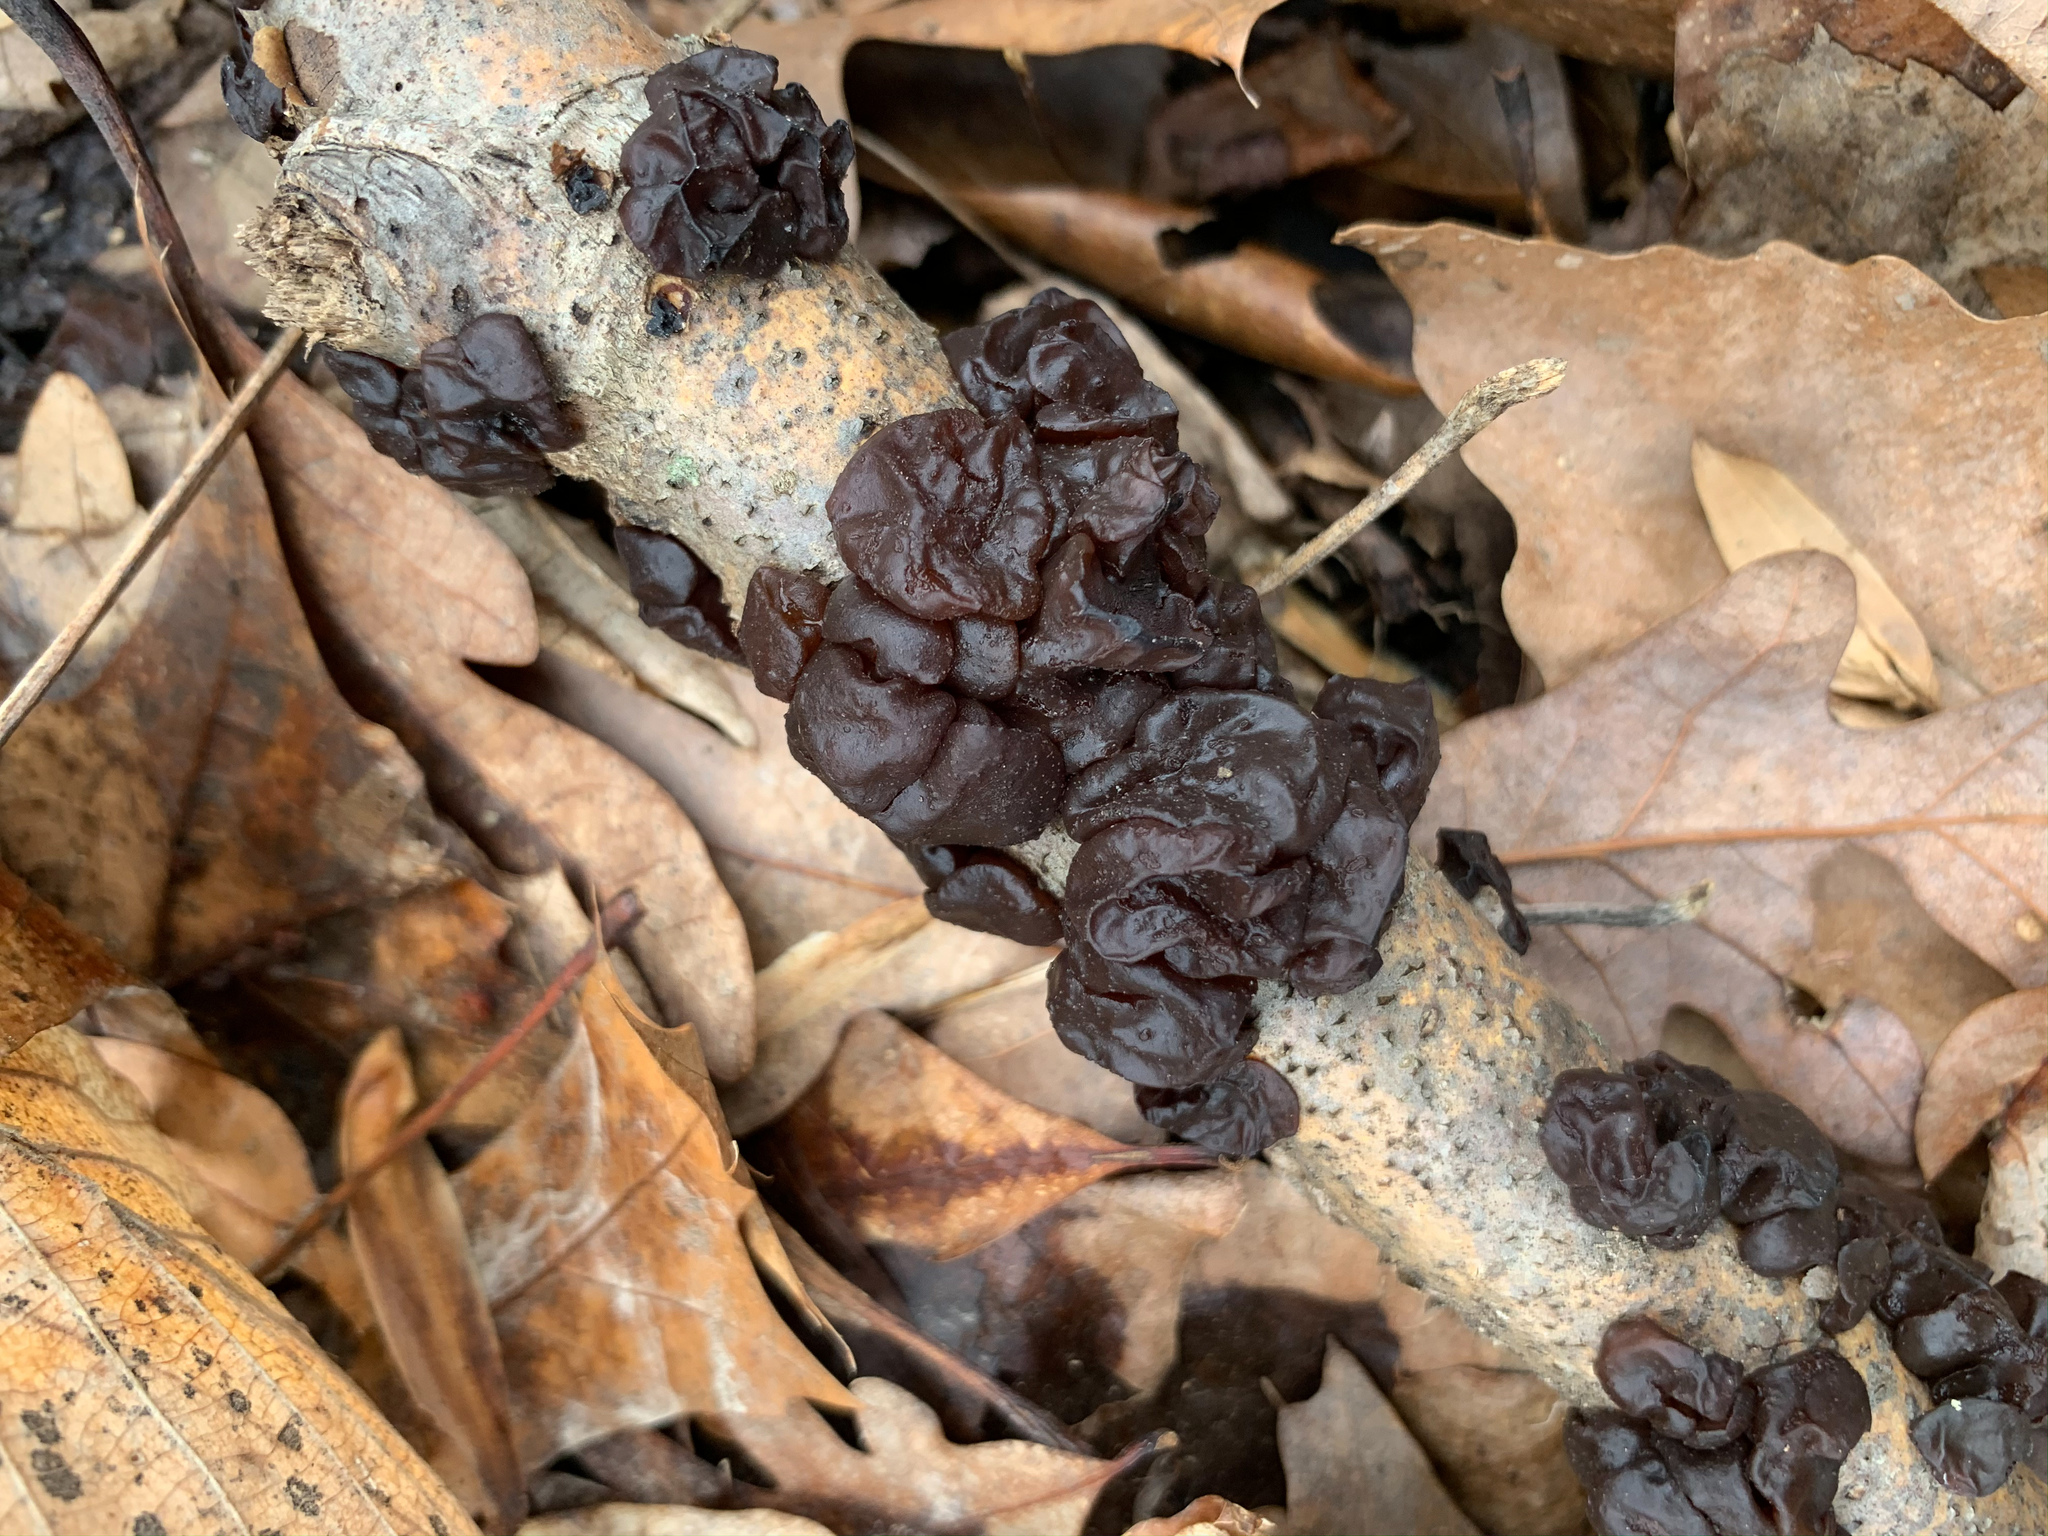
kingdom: Fungi
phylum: Basidiomycota
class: Agaricomycetes
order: Auriculariales
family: Auriculariaceae
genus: Exidia
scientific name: Exidia
